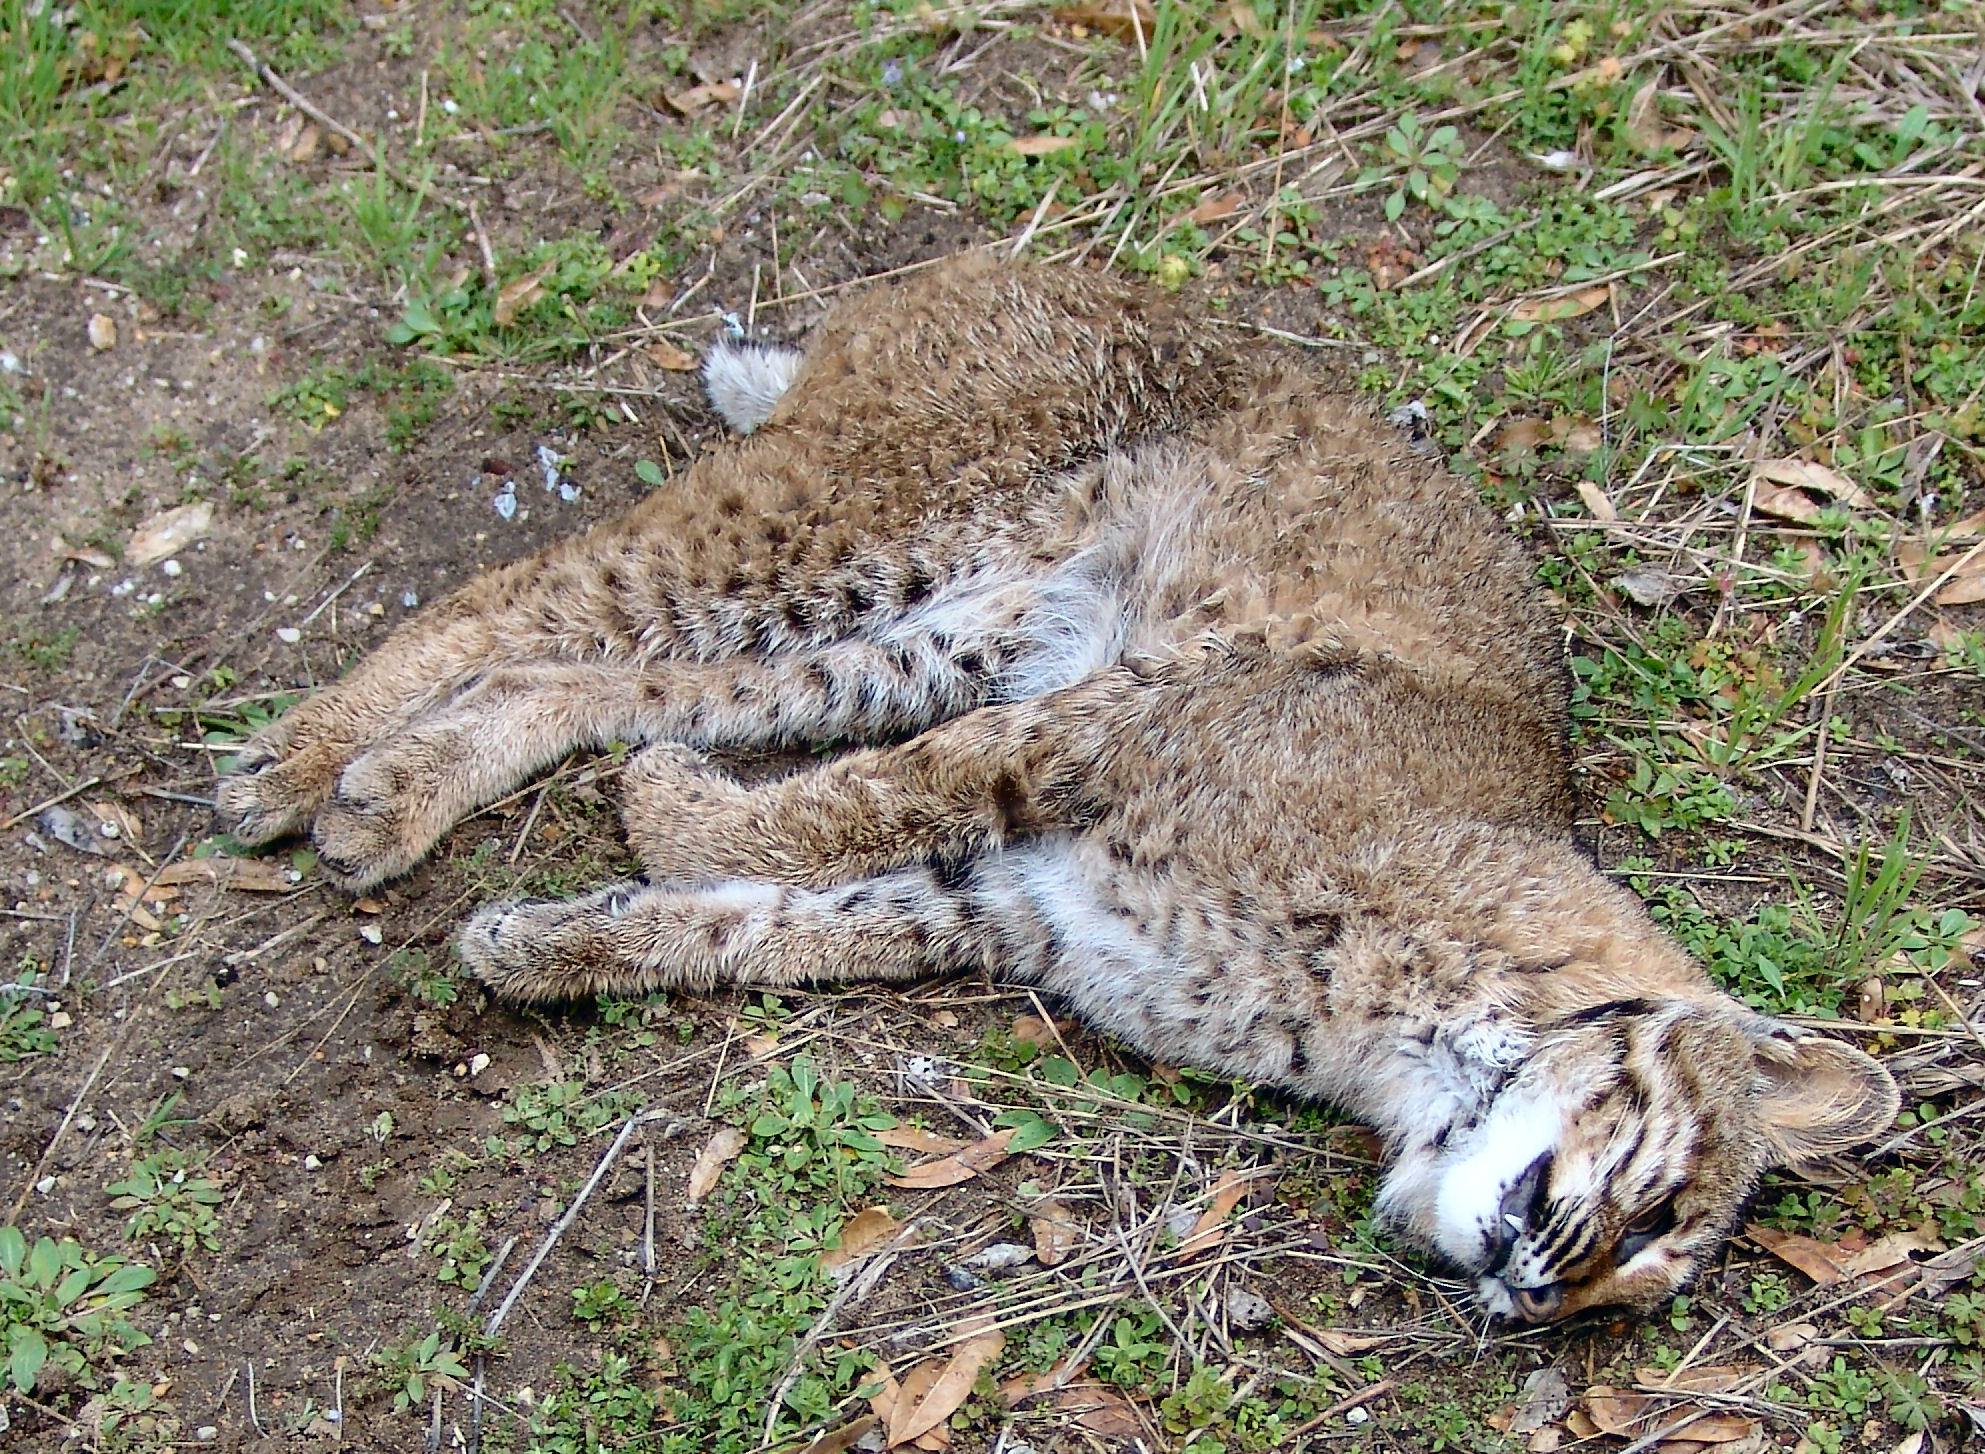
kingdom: Animalia
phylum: Chordata
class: Mammalia
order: Carnivora
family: Felidae
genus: Lynx
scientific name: Lynx rufus
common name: Bobcat
